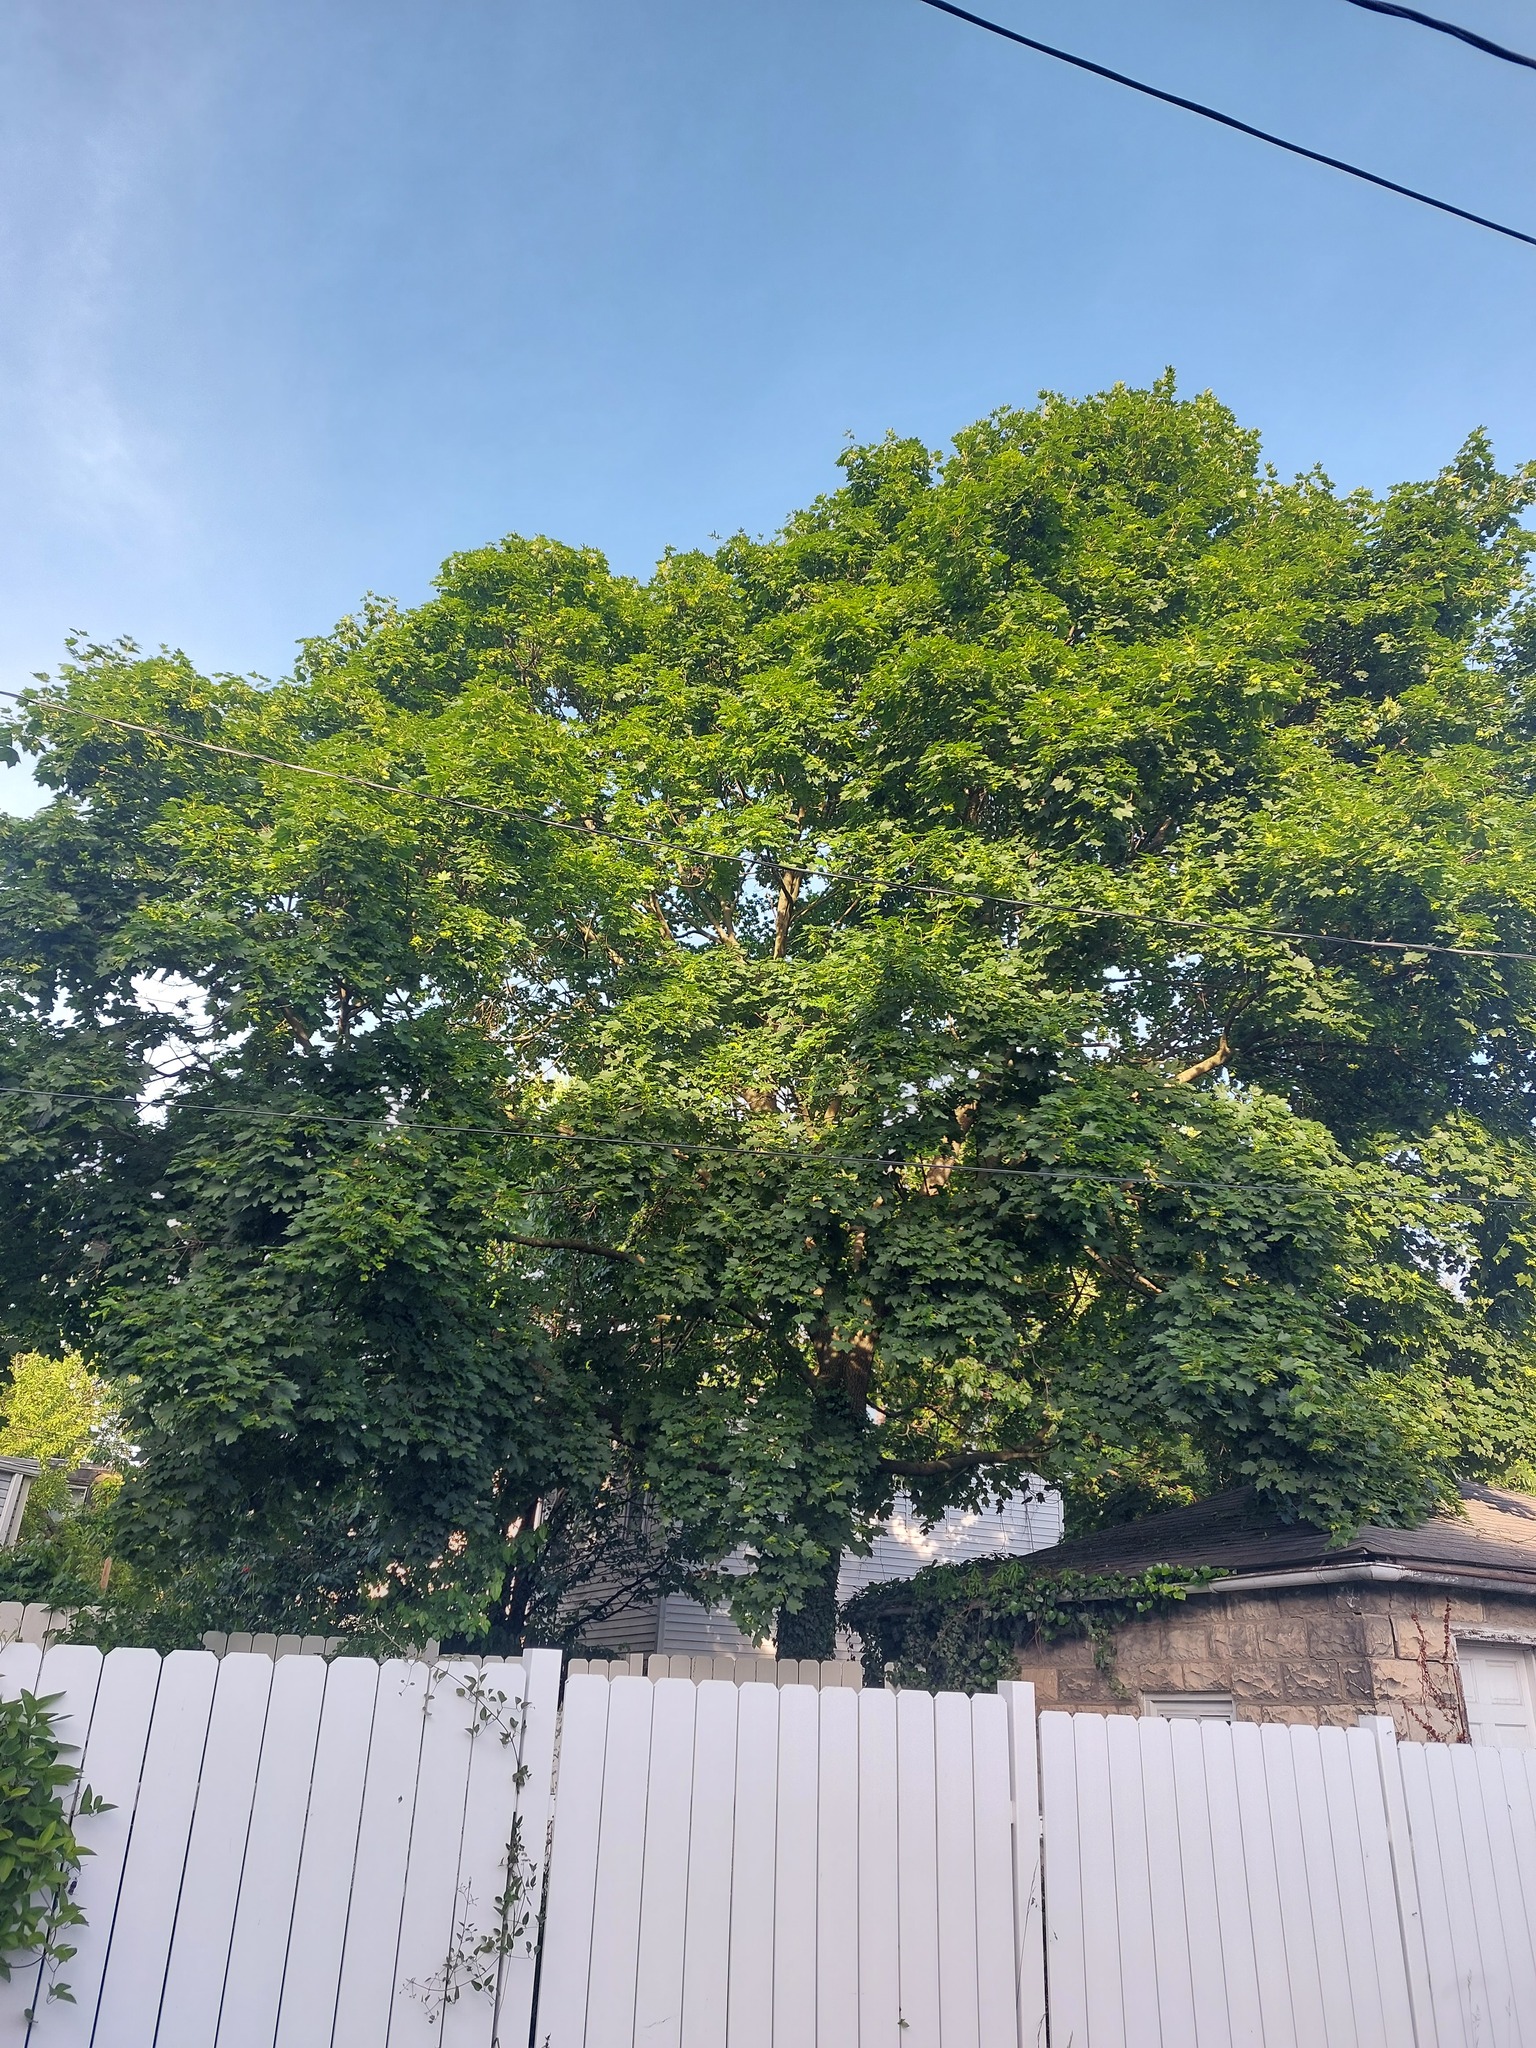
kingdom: Plantae
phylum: Tracheophyta
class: Magnoliopsida
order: Sapindales
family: Sapindaceae
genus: Acer
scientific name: Acer platanoides
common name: Norway maple
